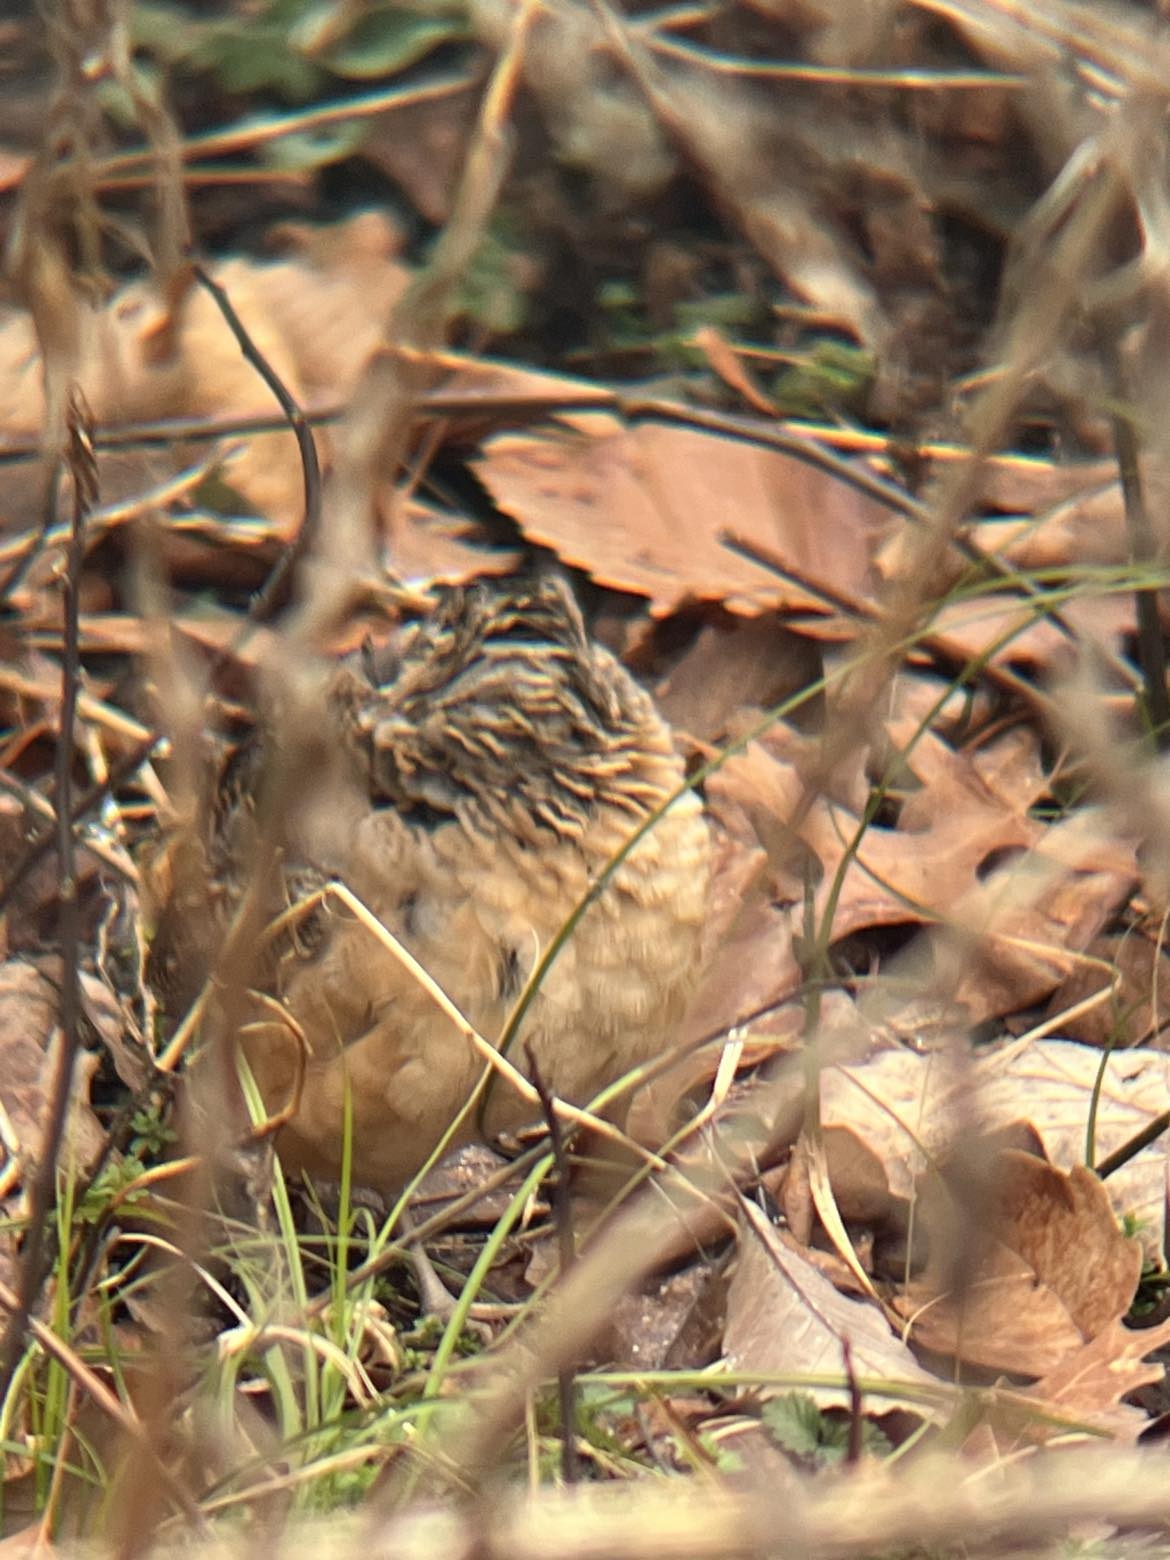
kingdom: Animalia
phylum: Chordata
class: Aves
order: Charadriiformes
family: Scolopacidae
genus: Scolopax
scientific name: Scolopax minor
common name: American woodcock
